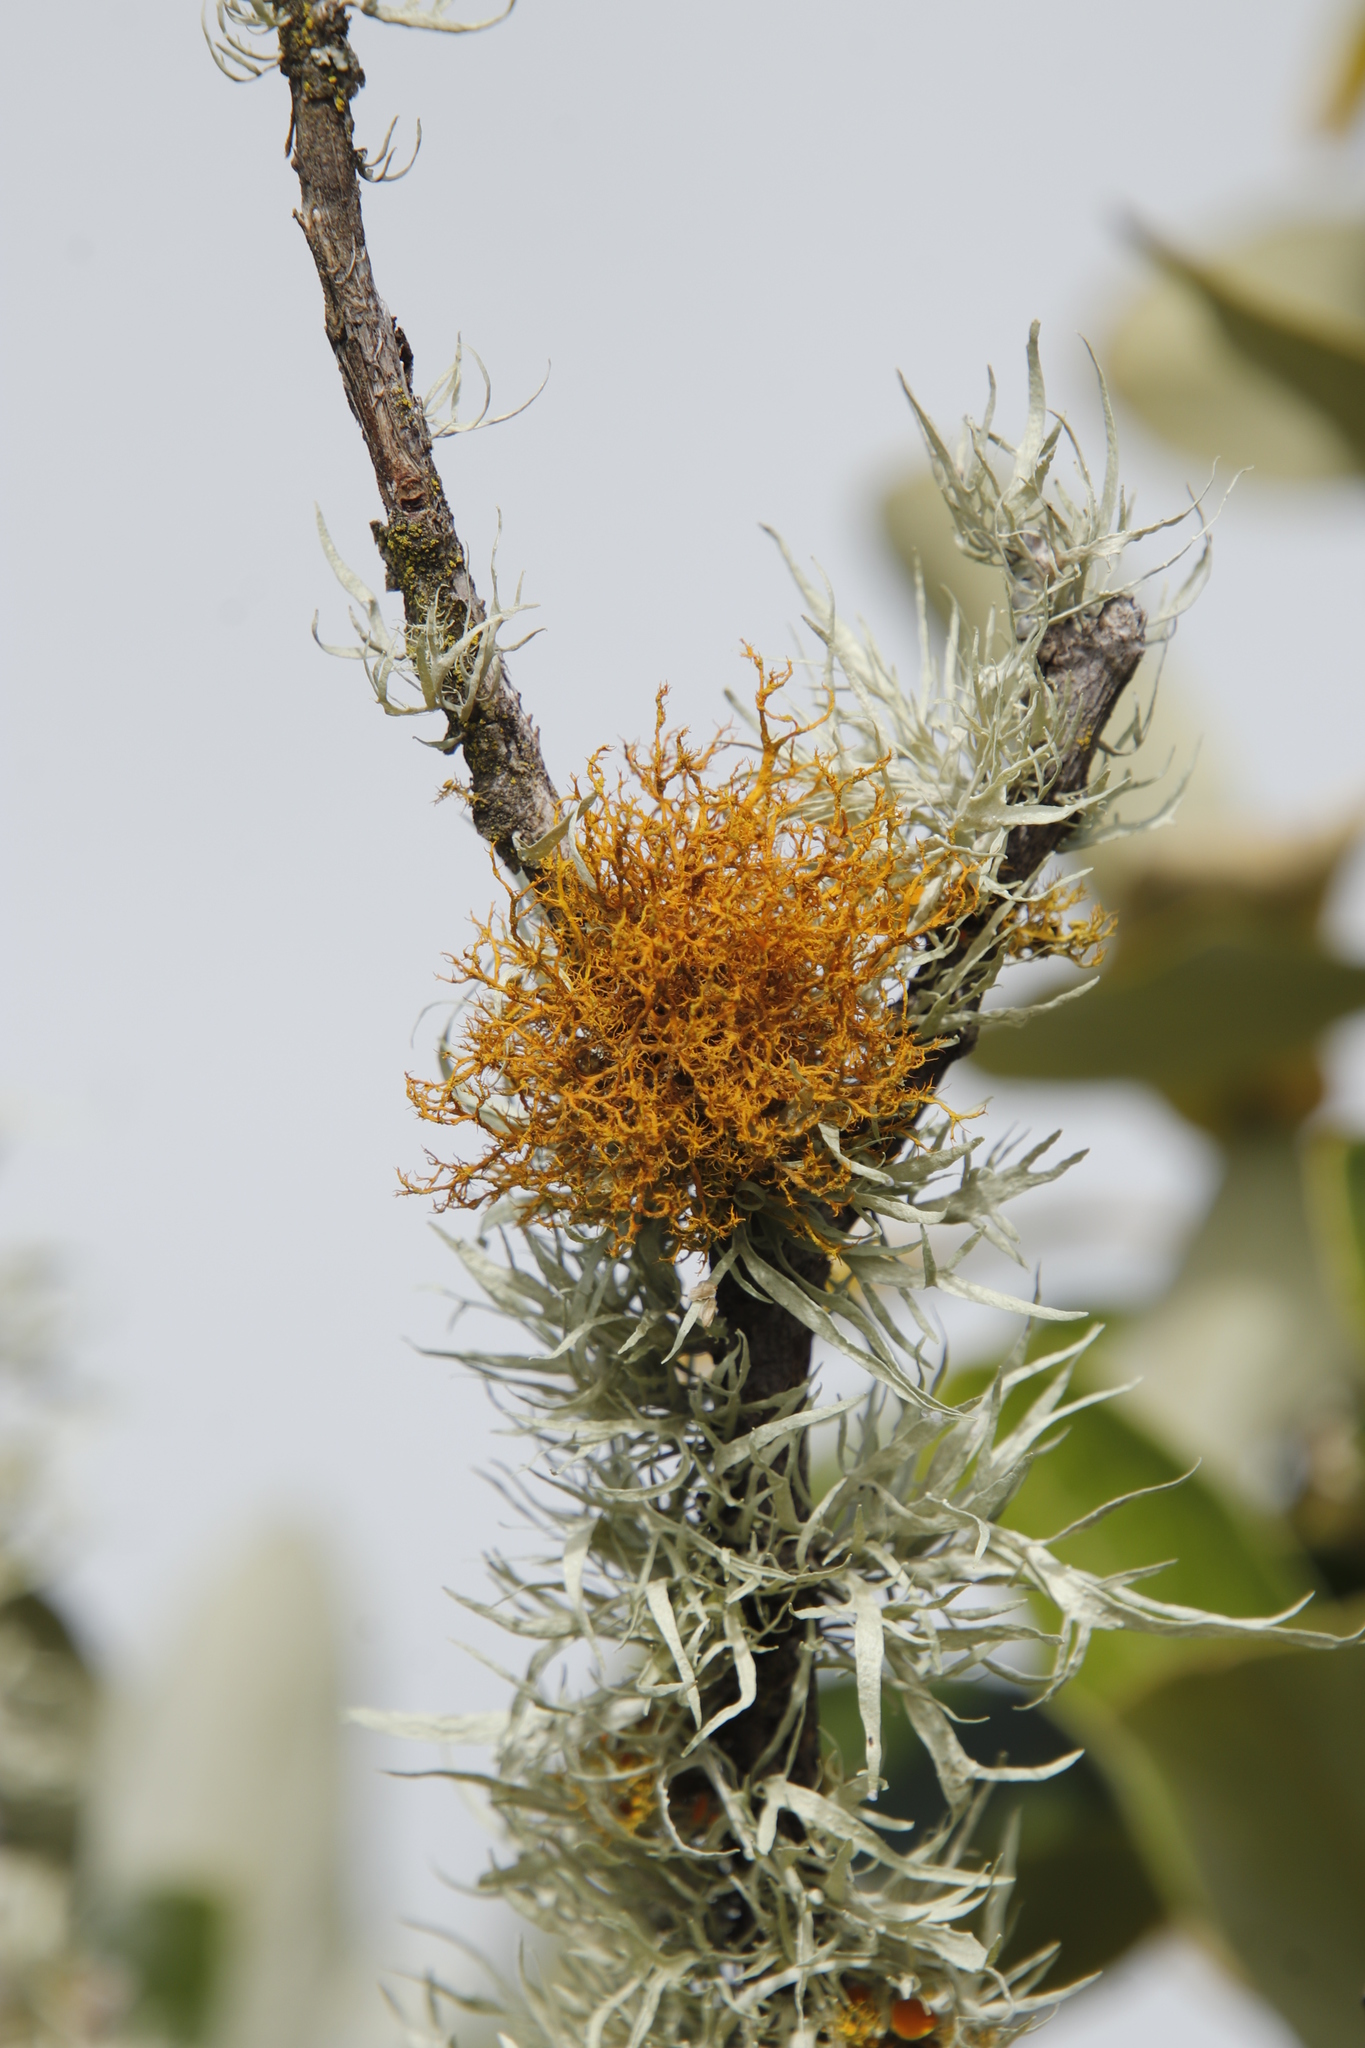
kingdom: Fungi
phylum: Ascomycota
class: Lecanoromycetes
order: Teloschistales
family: Teloschistaceae
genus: Teloschistes
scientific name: Teloschistes flavicans
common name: Golden hair-lichen
